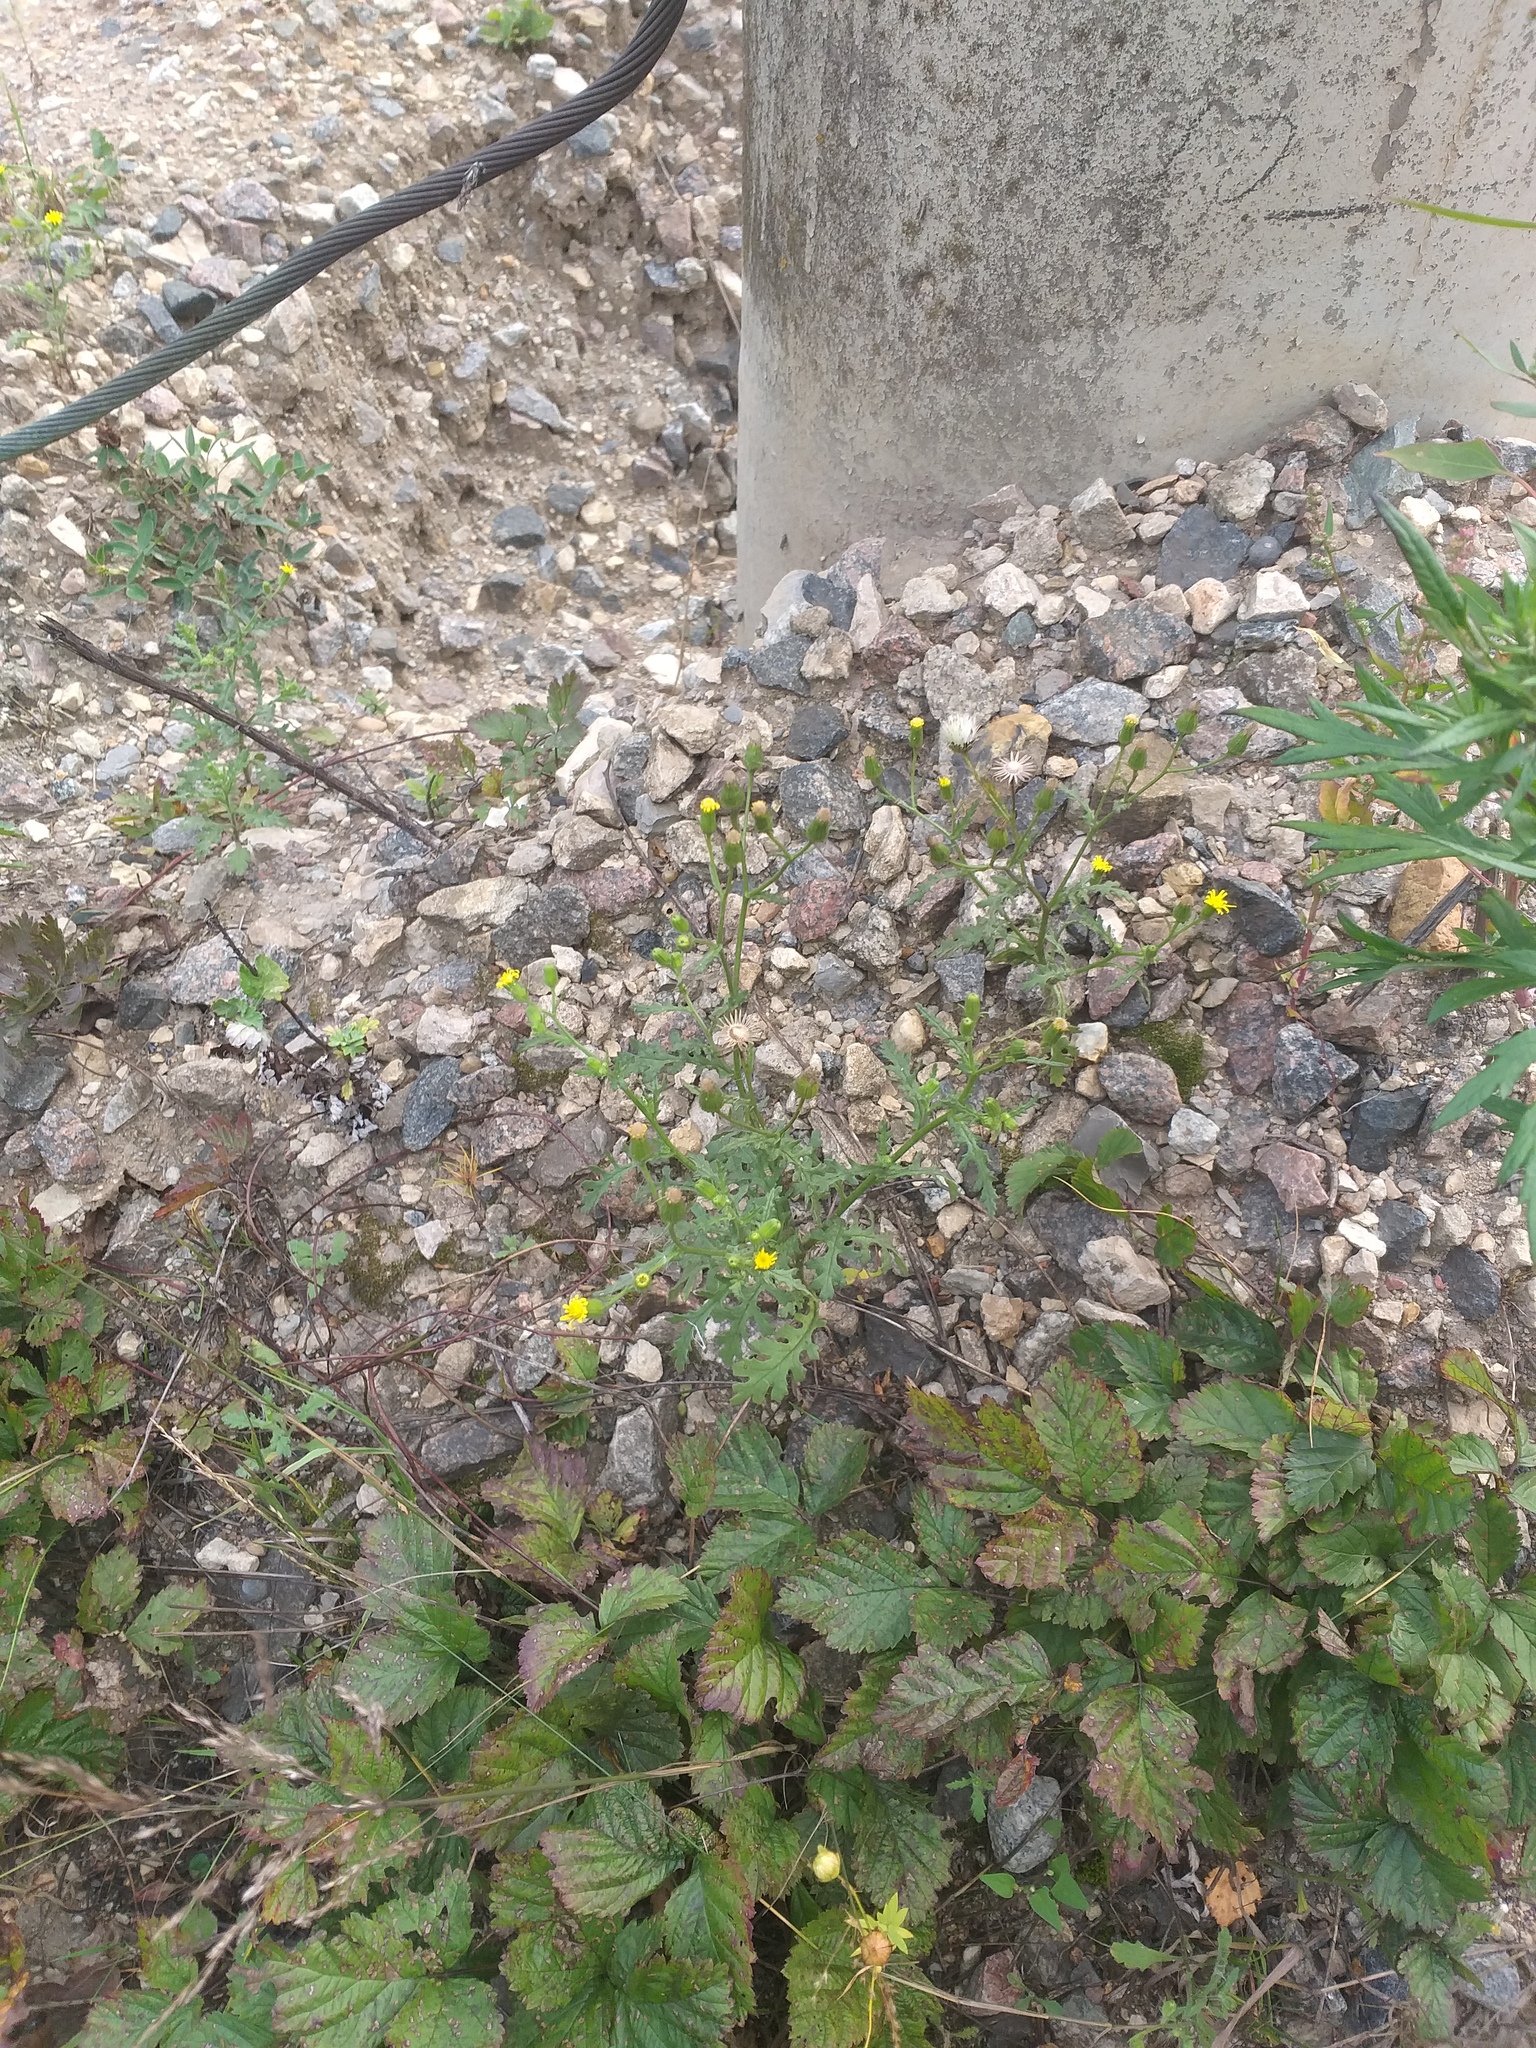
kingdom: Plantae
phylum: Tracheophyta
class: Magnoliopsida
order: Asterales
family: Asteraceae
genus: Senecio
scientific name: Senecio viscosus
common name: Sticky groundsel
